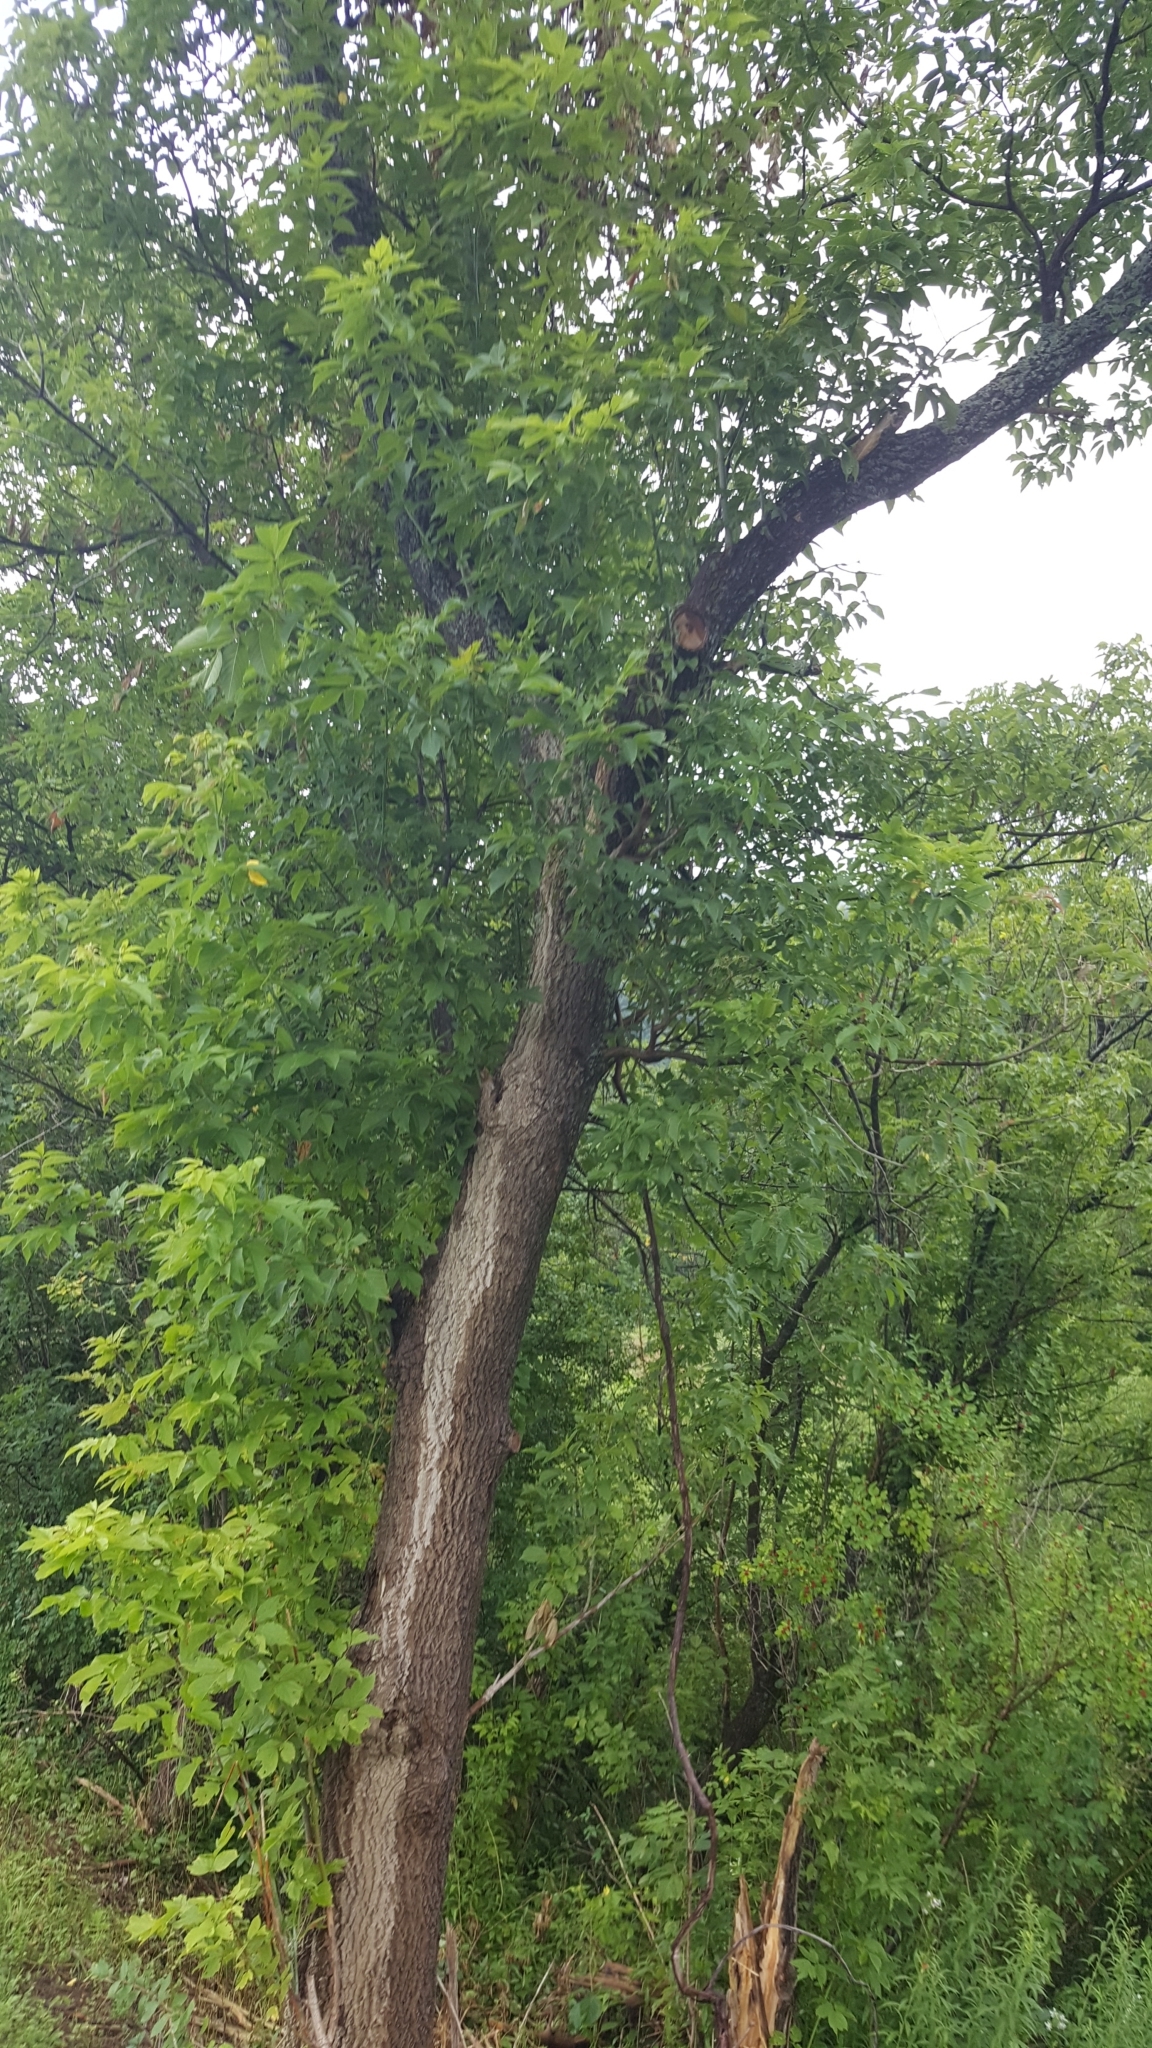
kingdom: Plantae
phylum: Tracheophyta
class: Magnoliopsida
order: Sapindales
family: Sapindaceae
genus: Acer
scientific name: Acer negundo
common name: Ashleaf maple
